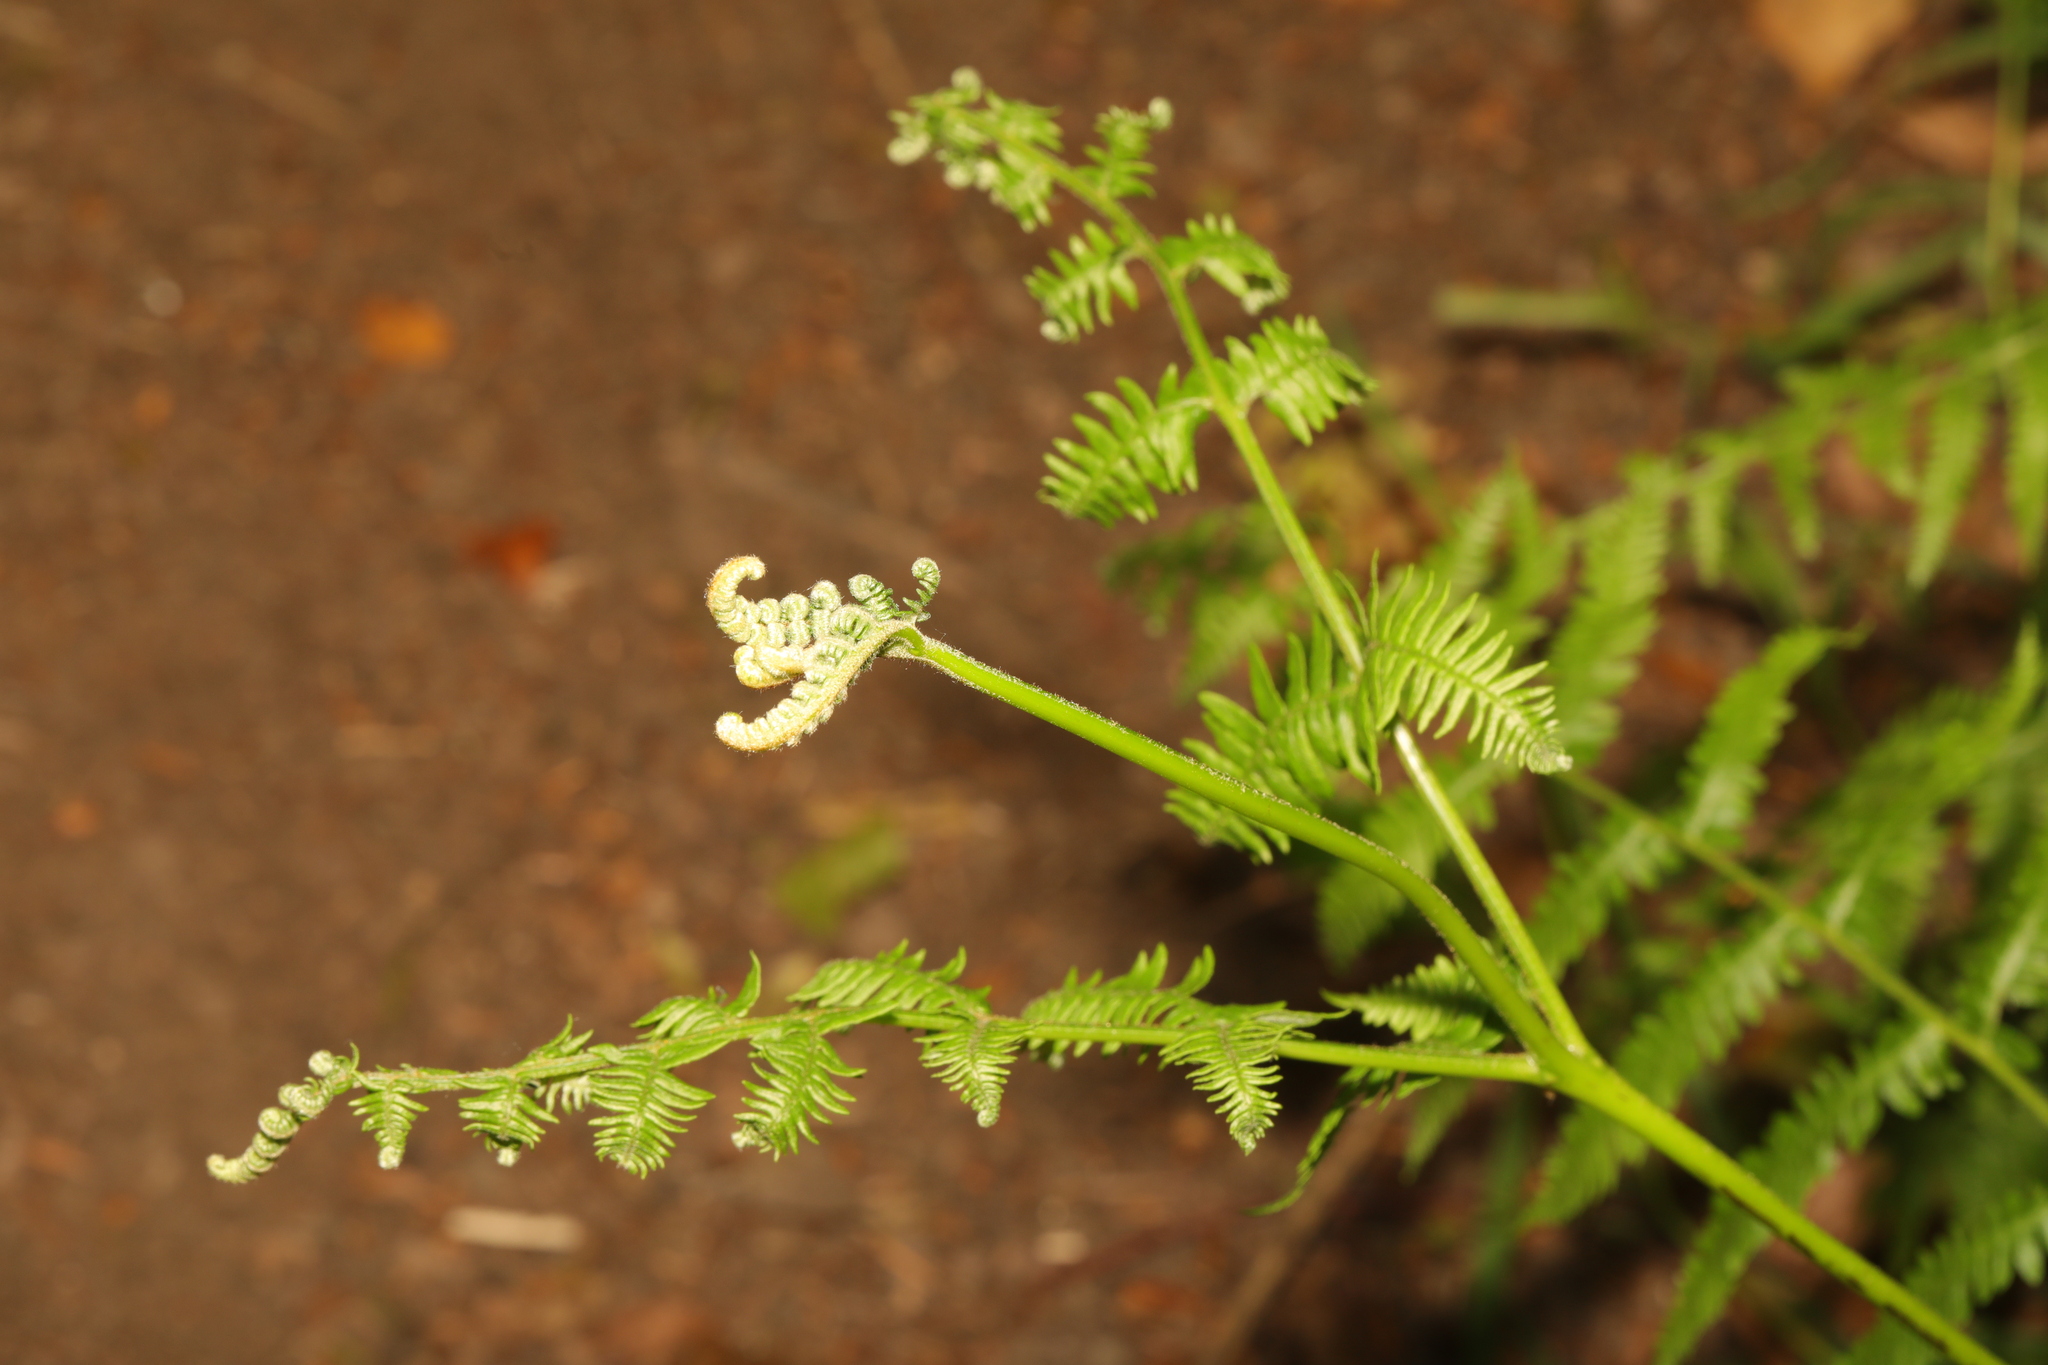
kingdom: Plantae
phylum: Tracheophyta
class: Polypodiopsida
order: Polypodiales
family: Dennstaedtiaceae
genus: Pteridium
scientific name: Pteridium aquilinum
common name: Bracken
